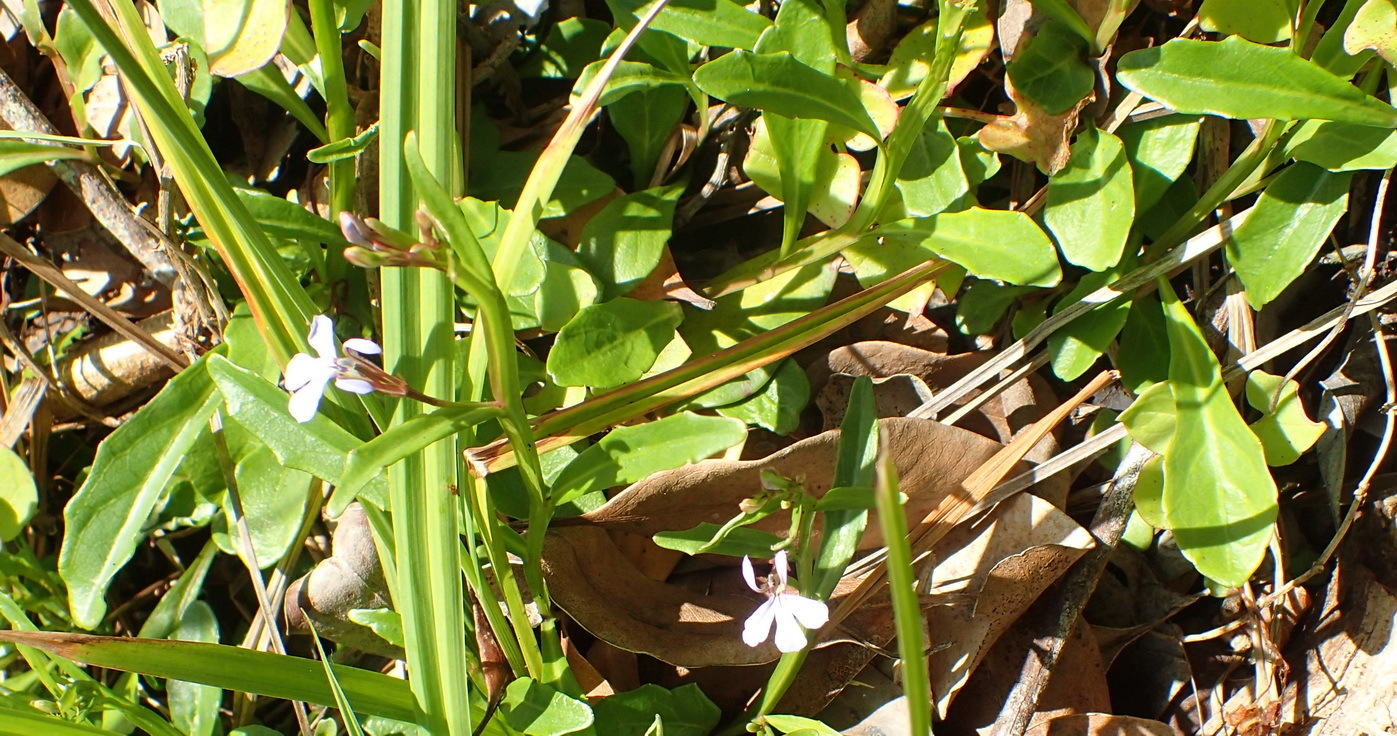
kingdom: Plantae
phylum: Tracheophyta
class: Magnoliopsida
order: Asterales
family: Campanulaceae
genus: Lobelia
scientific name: Lobelia anceps
